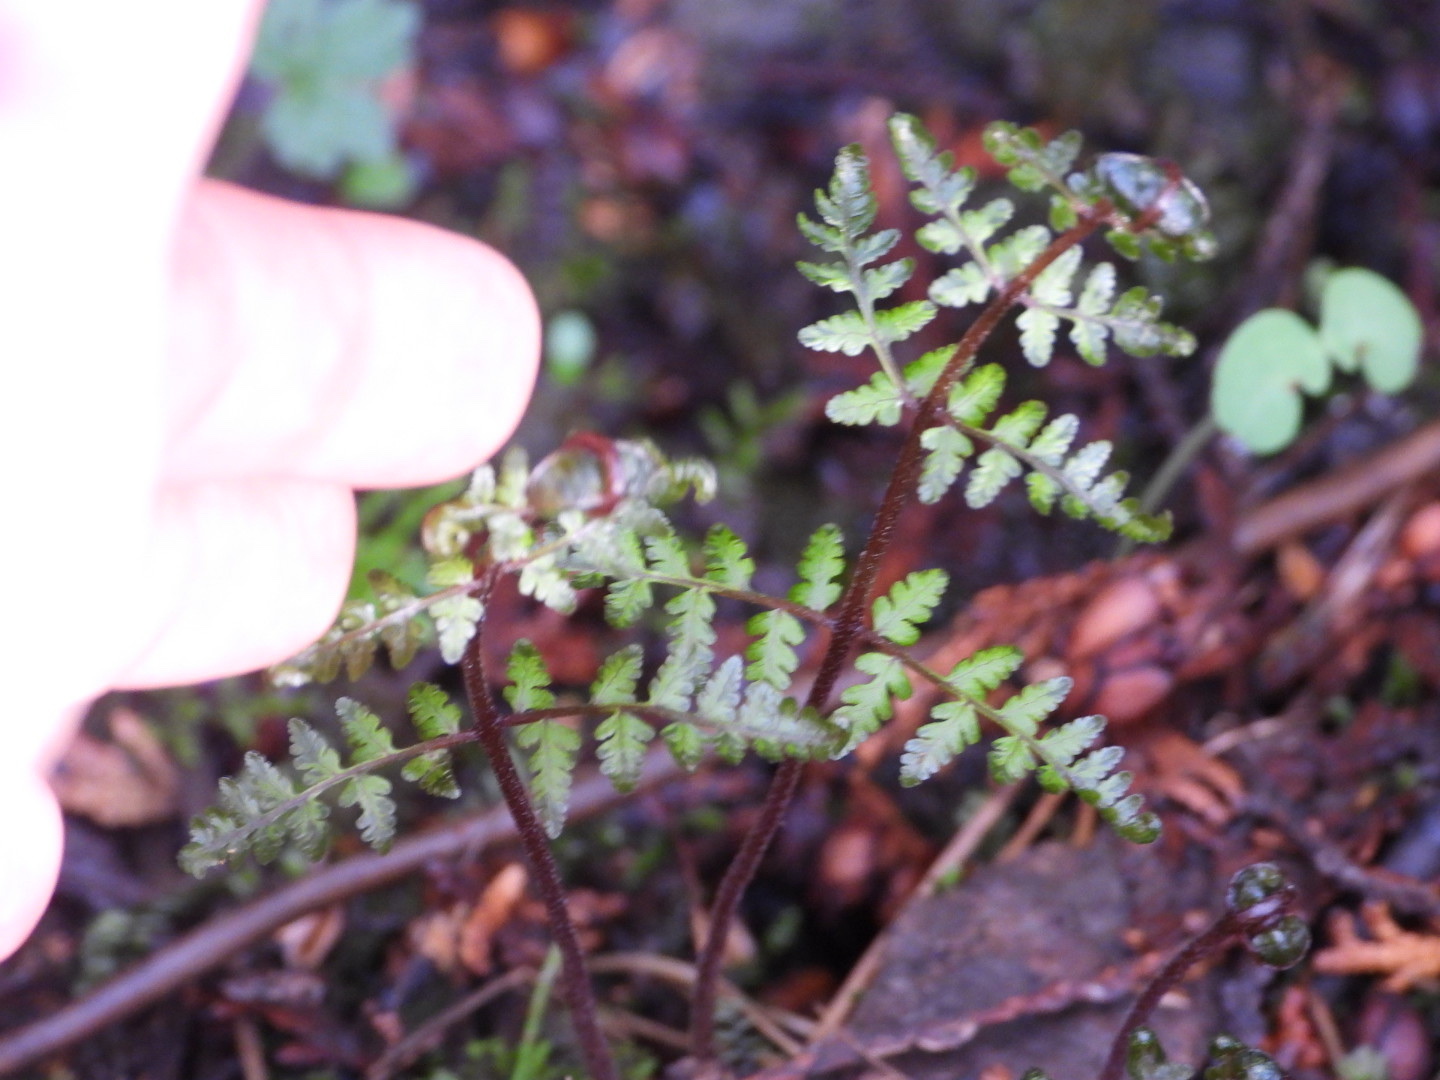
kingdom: Plantae
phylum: Tracheophyta
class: Polypodiopsida
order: Polypodiales
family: Athyriaceae
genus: Athyrium
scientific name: Athyrium angustum
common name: Northern lady fern
